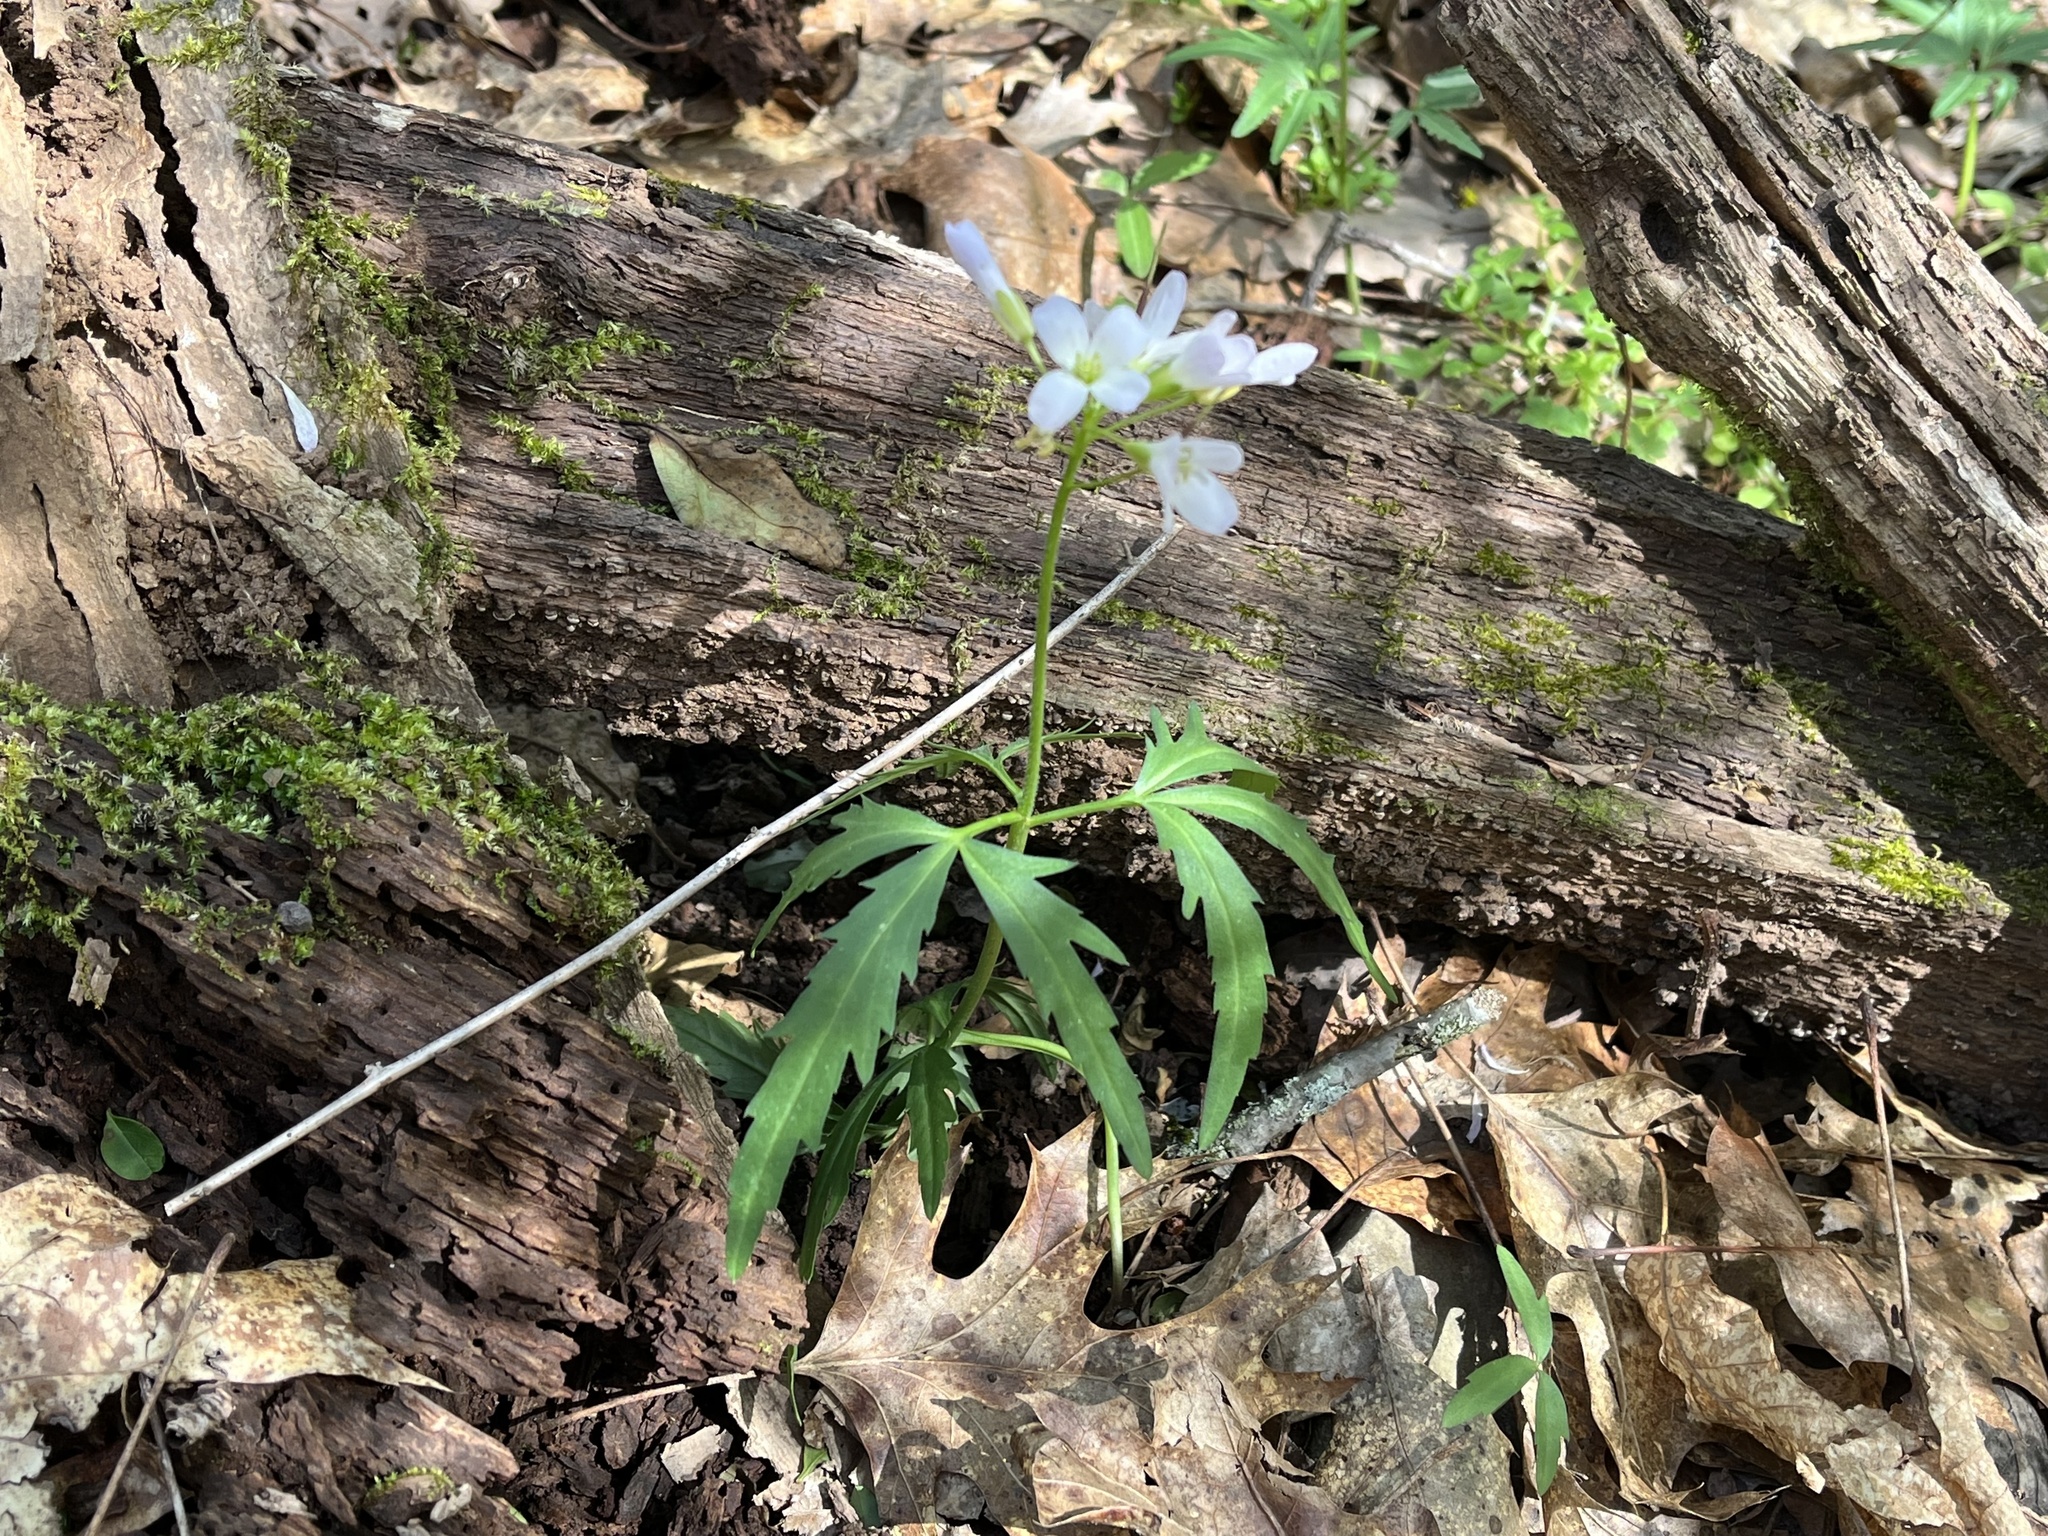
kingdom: Plantae
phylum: Tracheophyta
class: Magnoliopsida
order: Brassicales
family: Brassicaceae
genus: Cardamine
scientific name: Cardamine concatenata
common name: Cut-leaf toothcup
